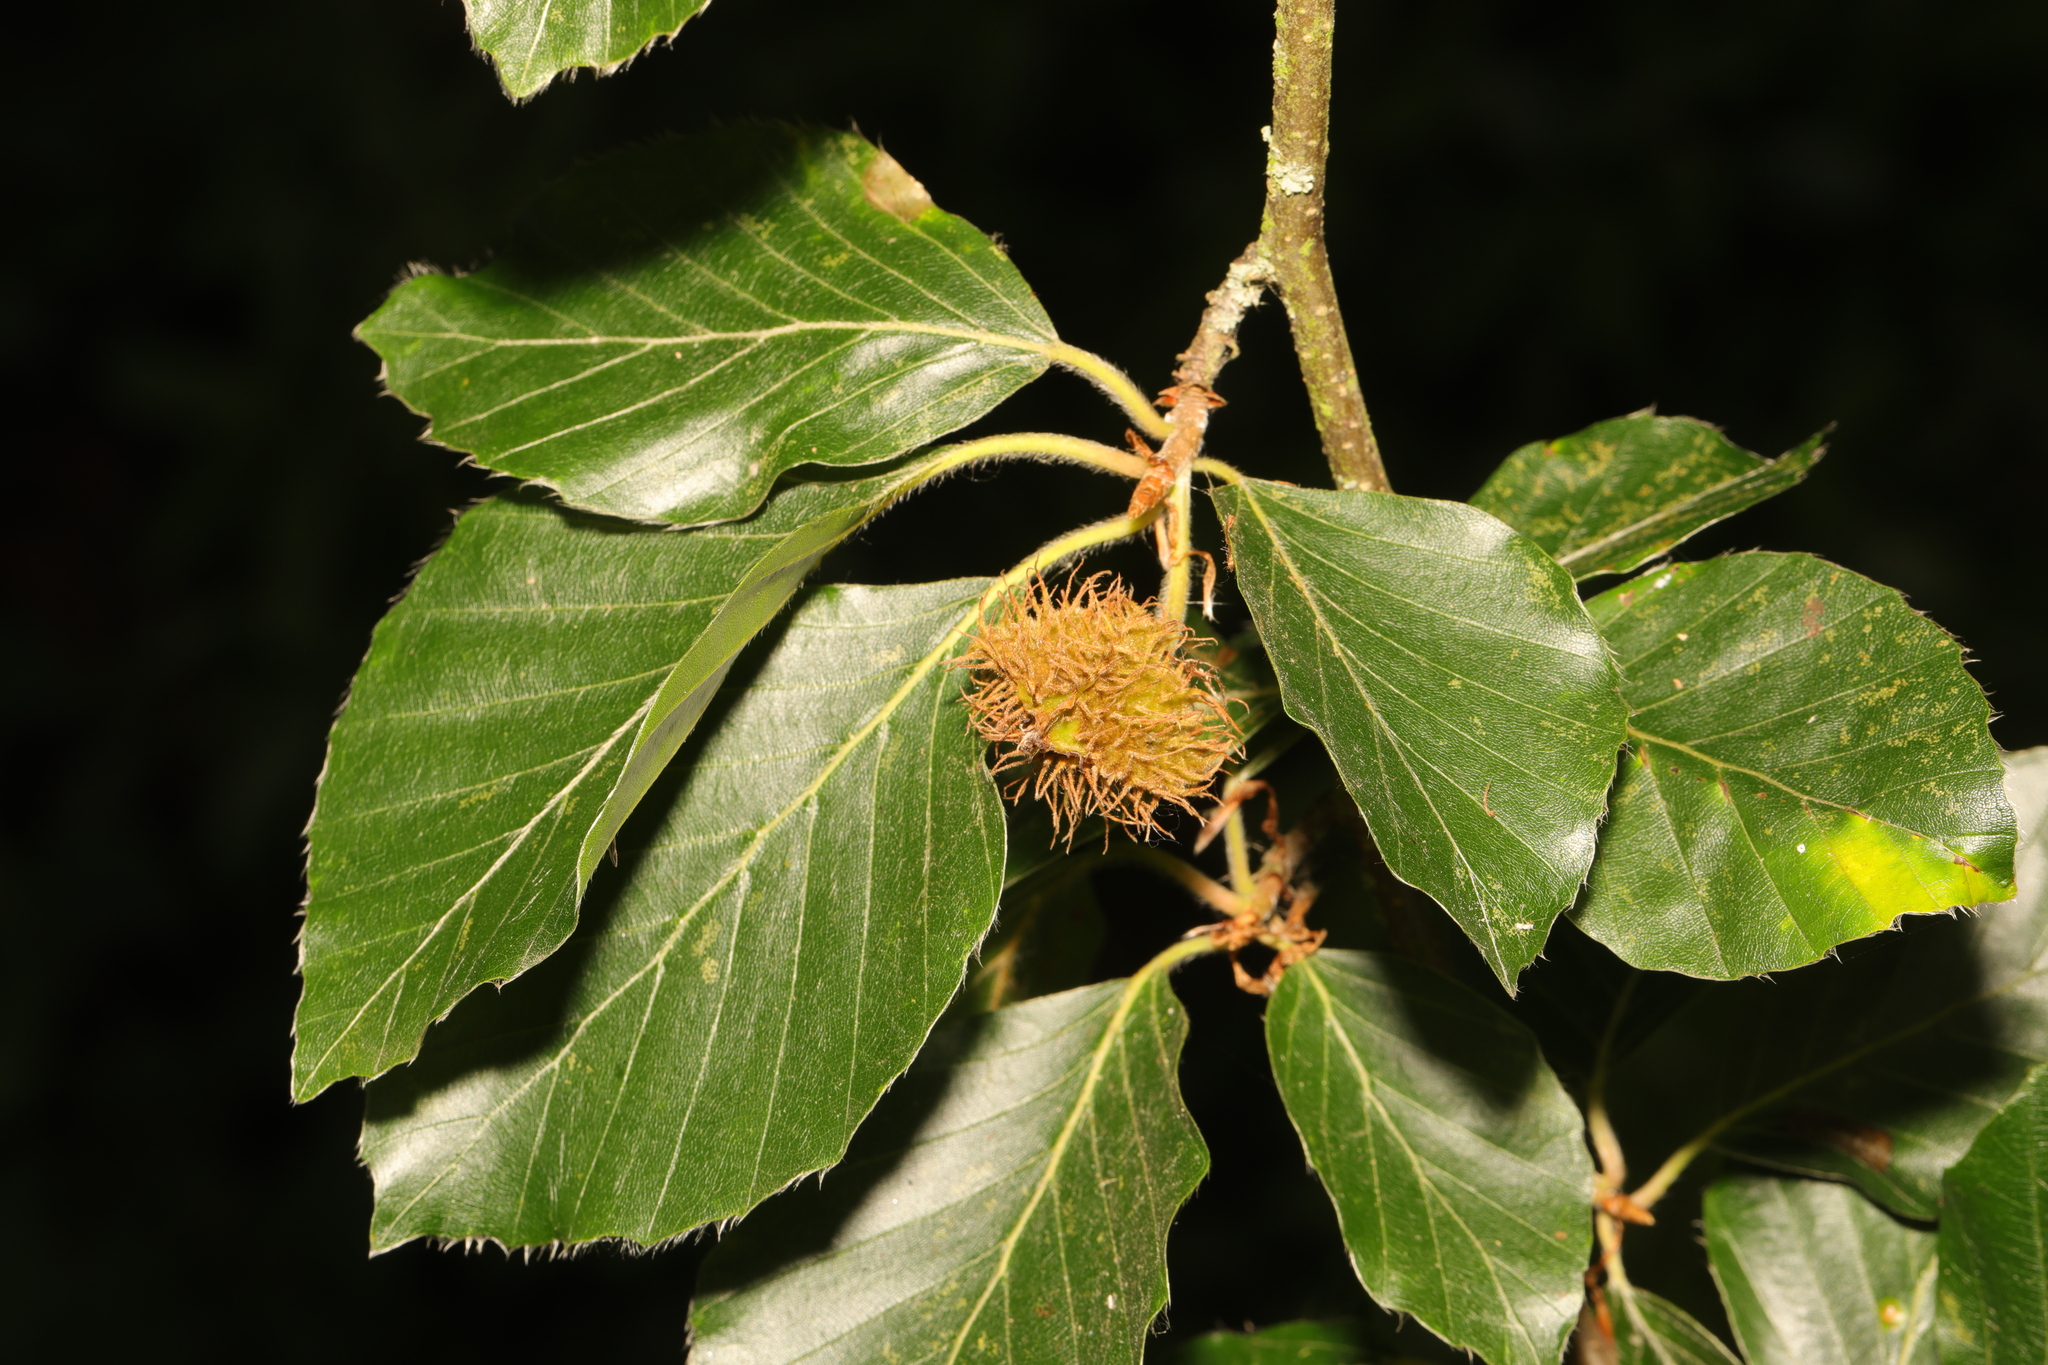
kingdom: Plantae
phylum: Tracheophyta
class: Magnoliopsida
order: Fagales
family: Fagaceae
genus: Fagus
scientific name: Fagus sylvatica
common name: Beech
